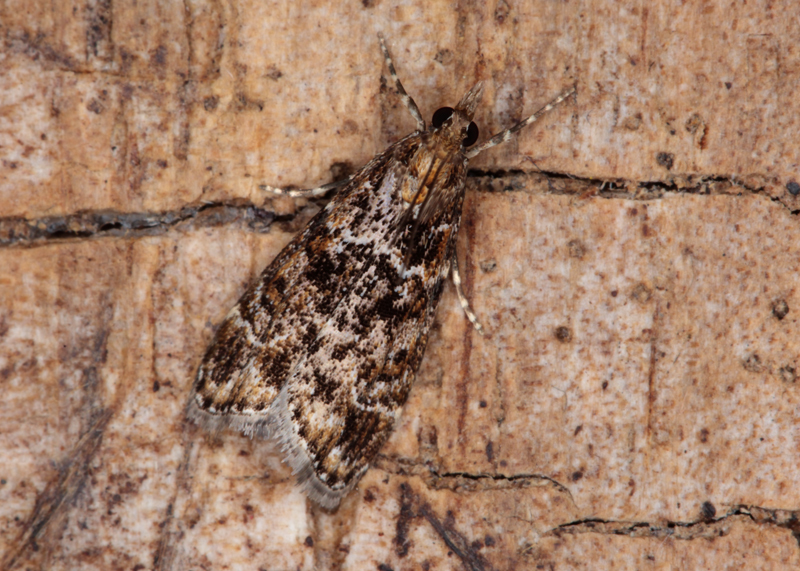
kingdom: Animalia
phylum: Arthropoda
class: Insecta
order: Lepidoptera
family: Crambidae
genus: Eudonia
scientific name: Eudonia minualis
